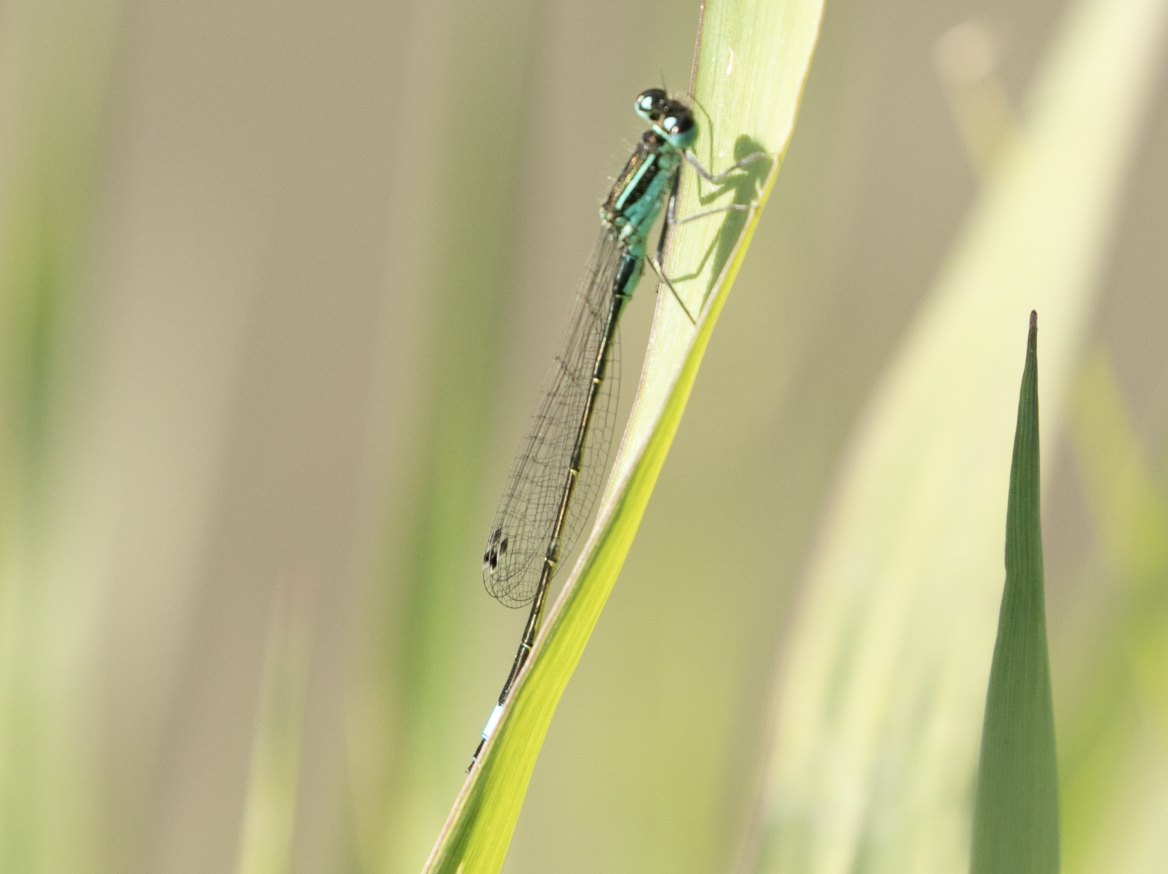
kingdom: Animalia
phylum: Arthropoda
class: Insecta
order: Odonata
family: Coenagrionidae
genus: Ischnura
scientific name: Ischnura elegans
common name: Blue-tailed damselfly
